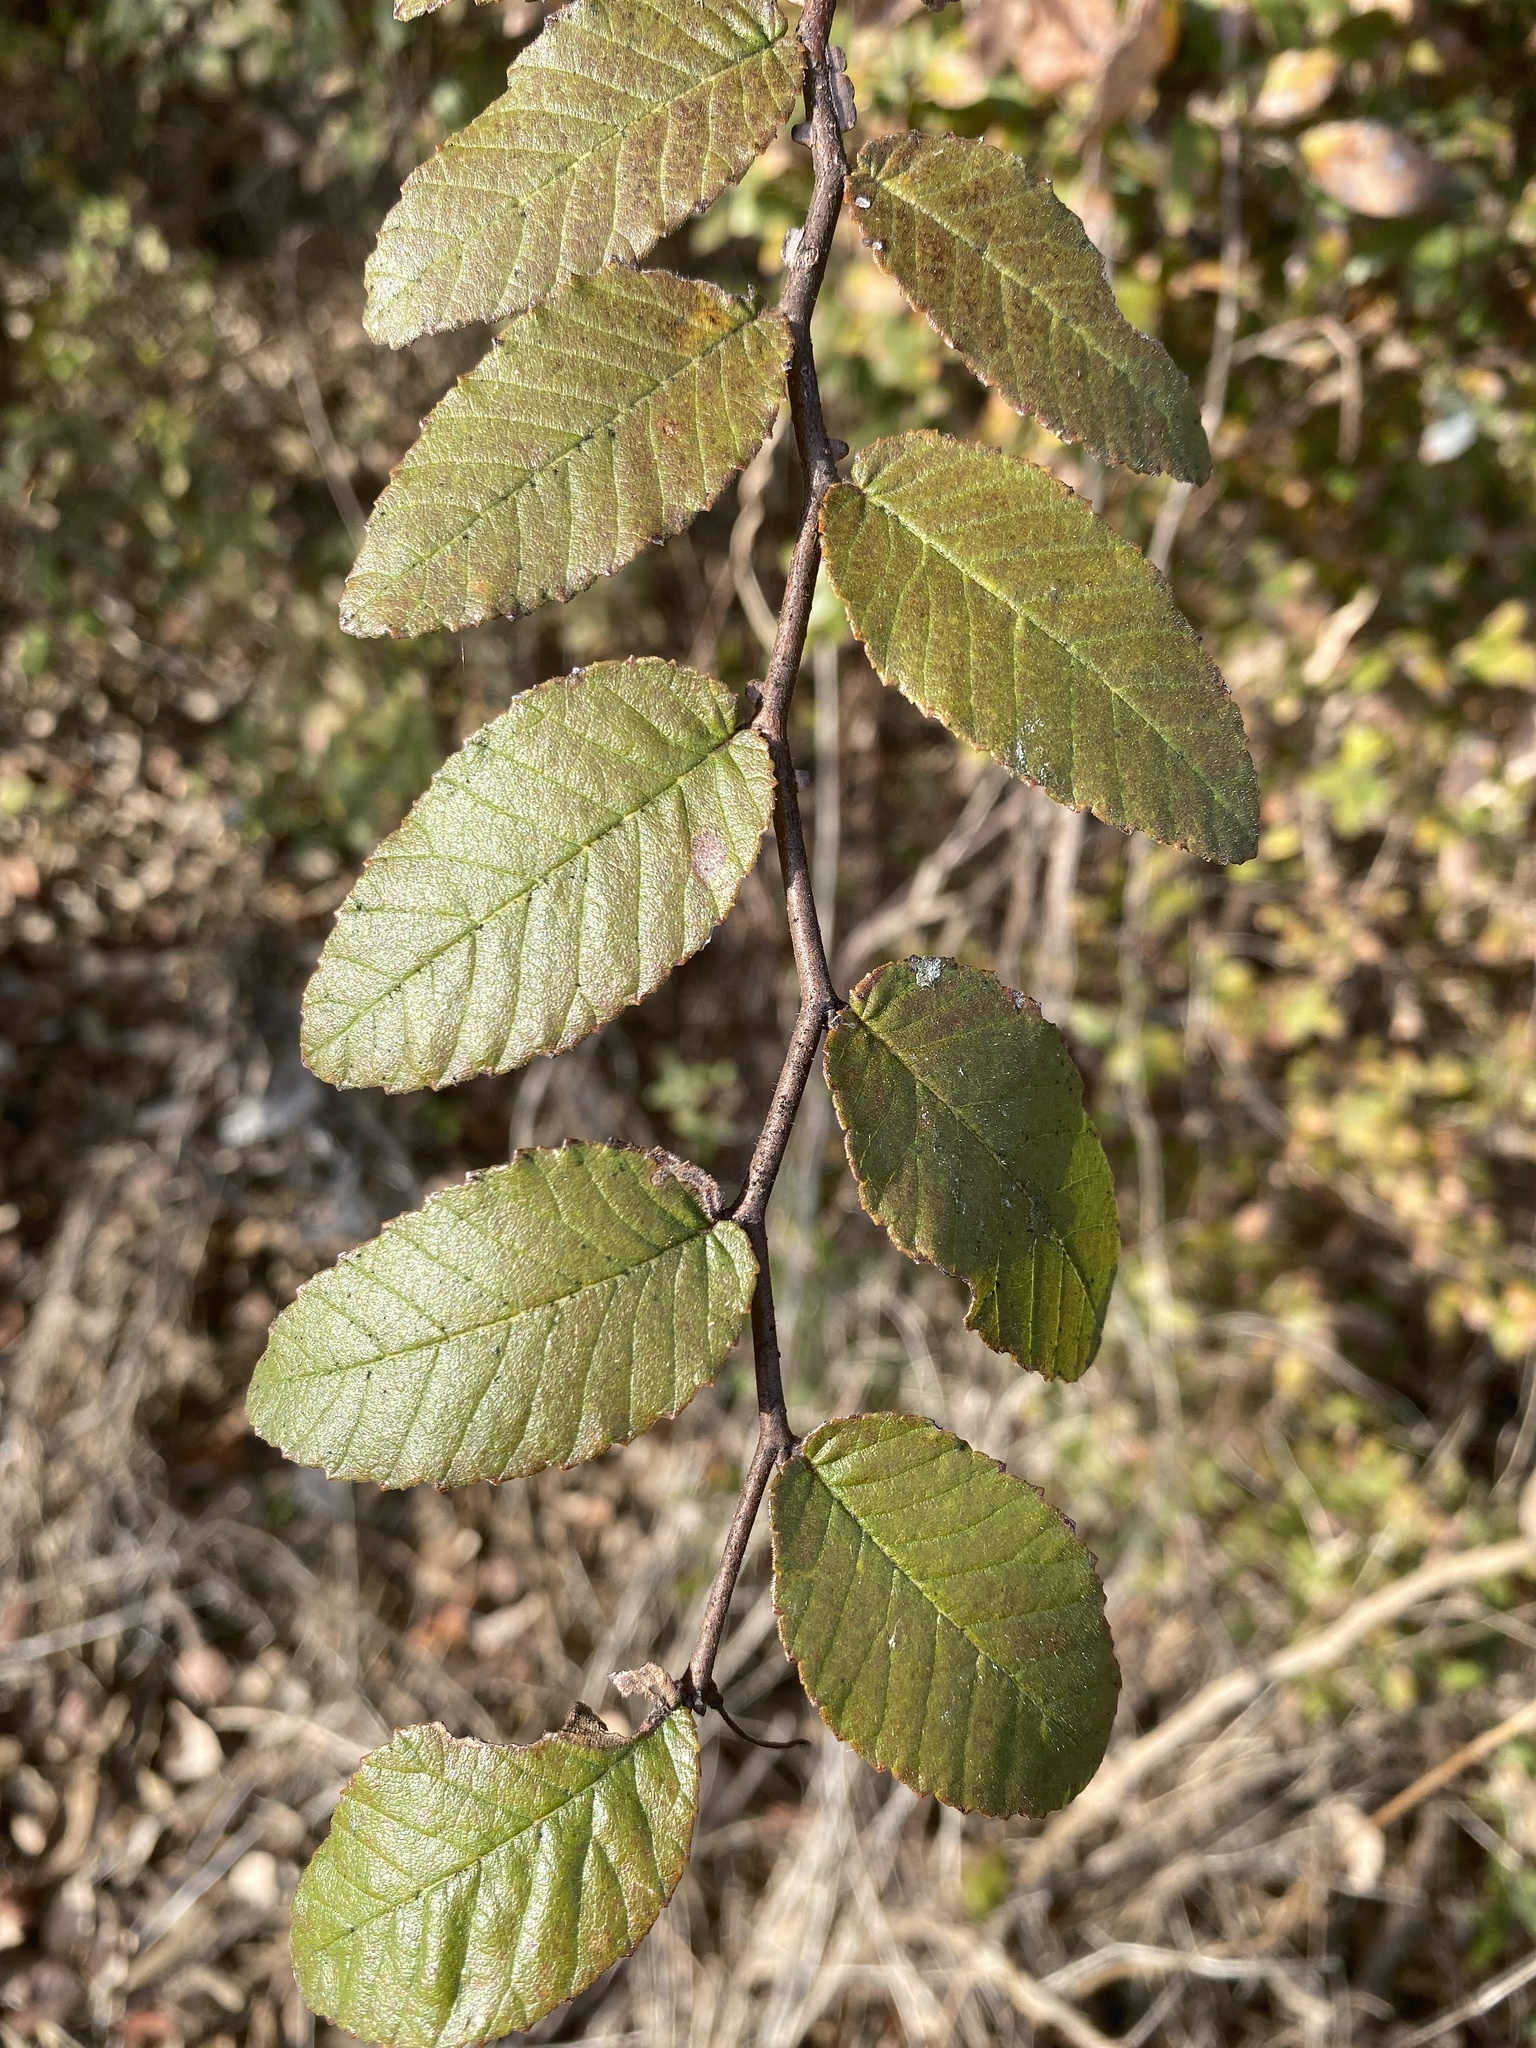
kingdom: Plantae
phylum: Tracheophyta
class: Magnoliopsida
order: Rosales
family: Ulmaceae
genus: Ulmus
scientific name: Ulmus crassifolia
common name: Basket elm
